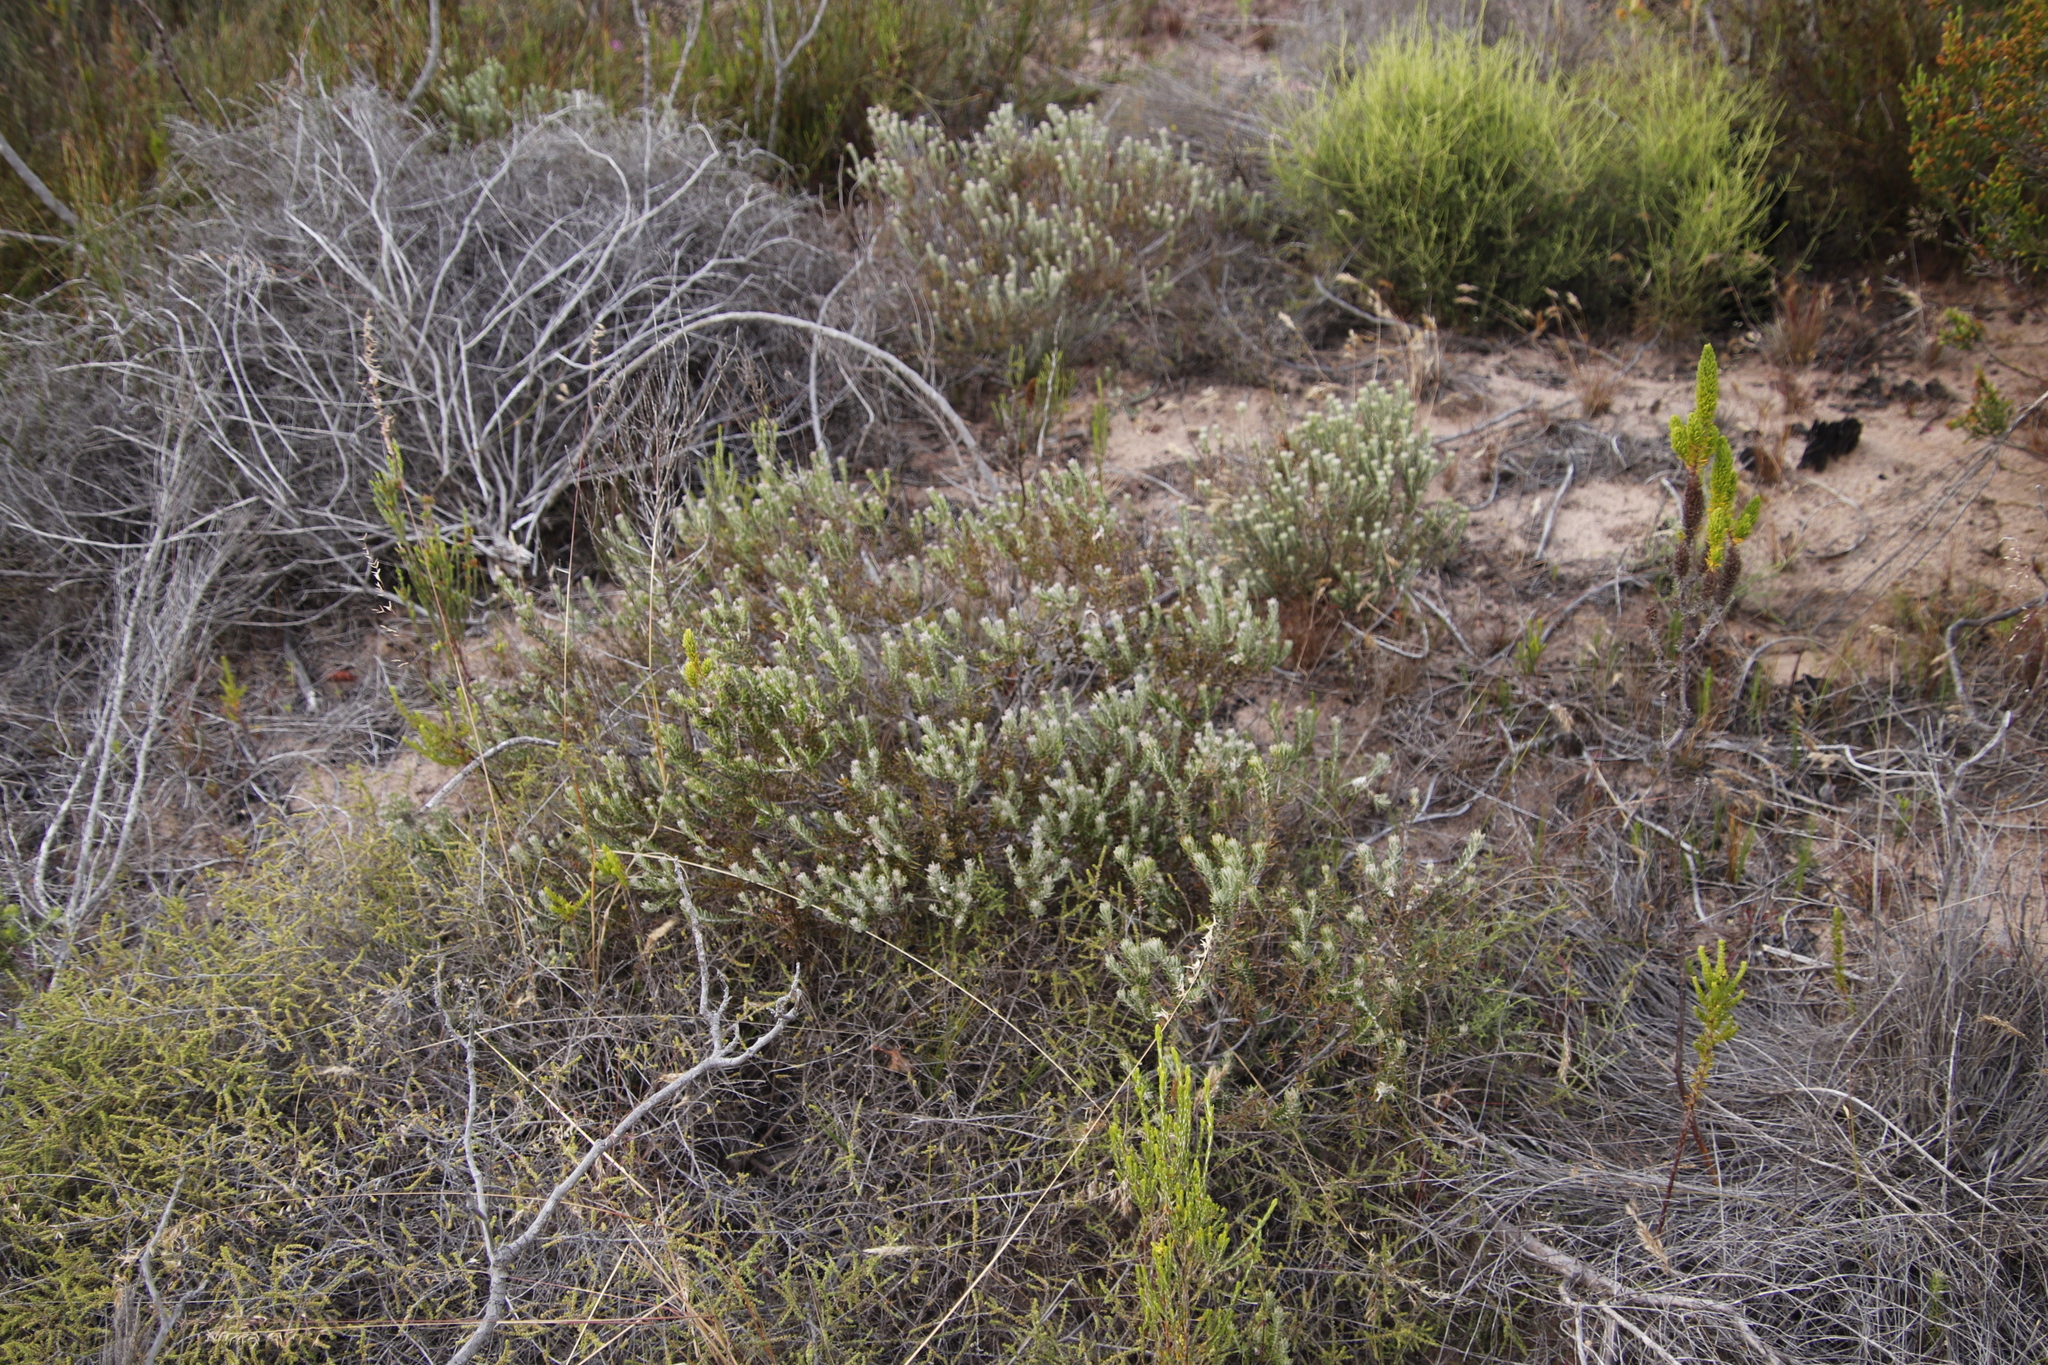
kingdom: Plantae
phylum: Tracheophyta
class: Magnoliopsida
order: Rosales
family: Rhamnaceae
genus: Trichocephalus
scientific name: Trichocephalus stipularis
